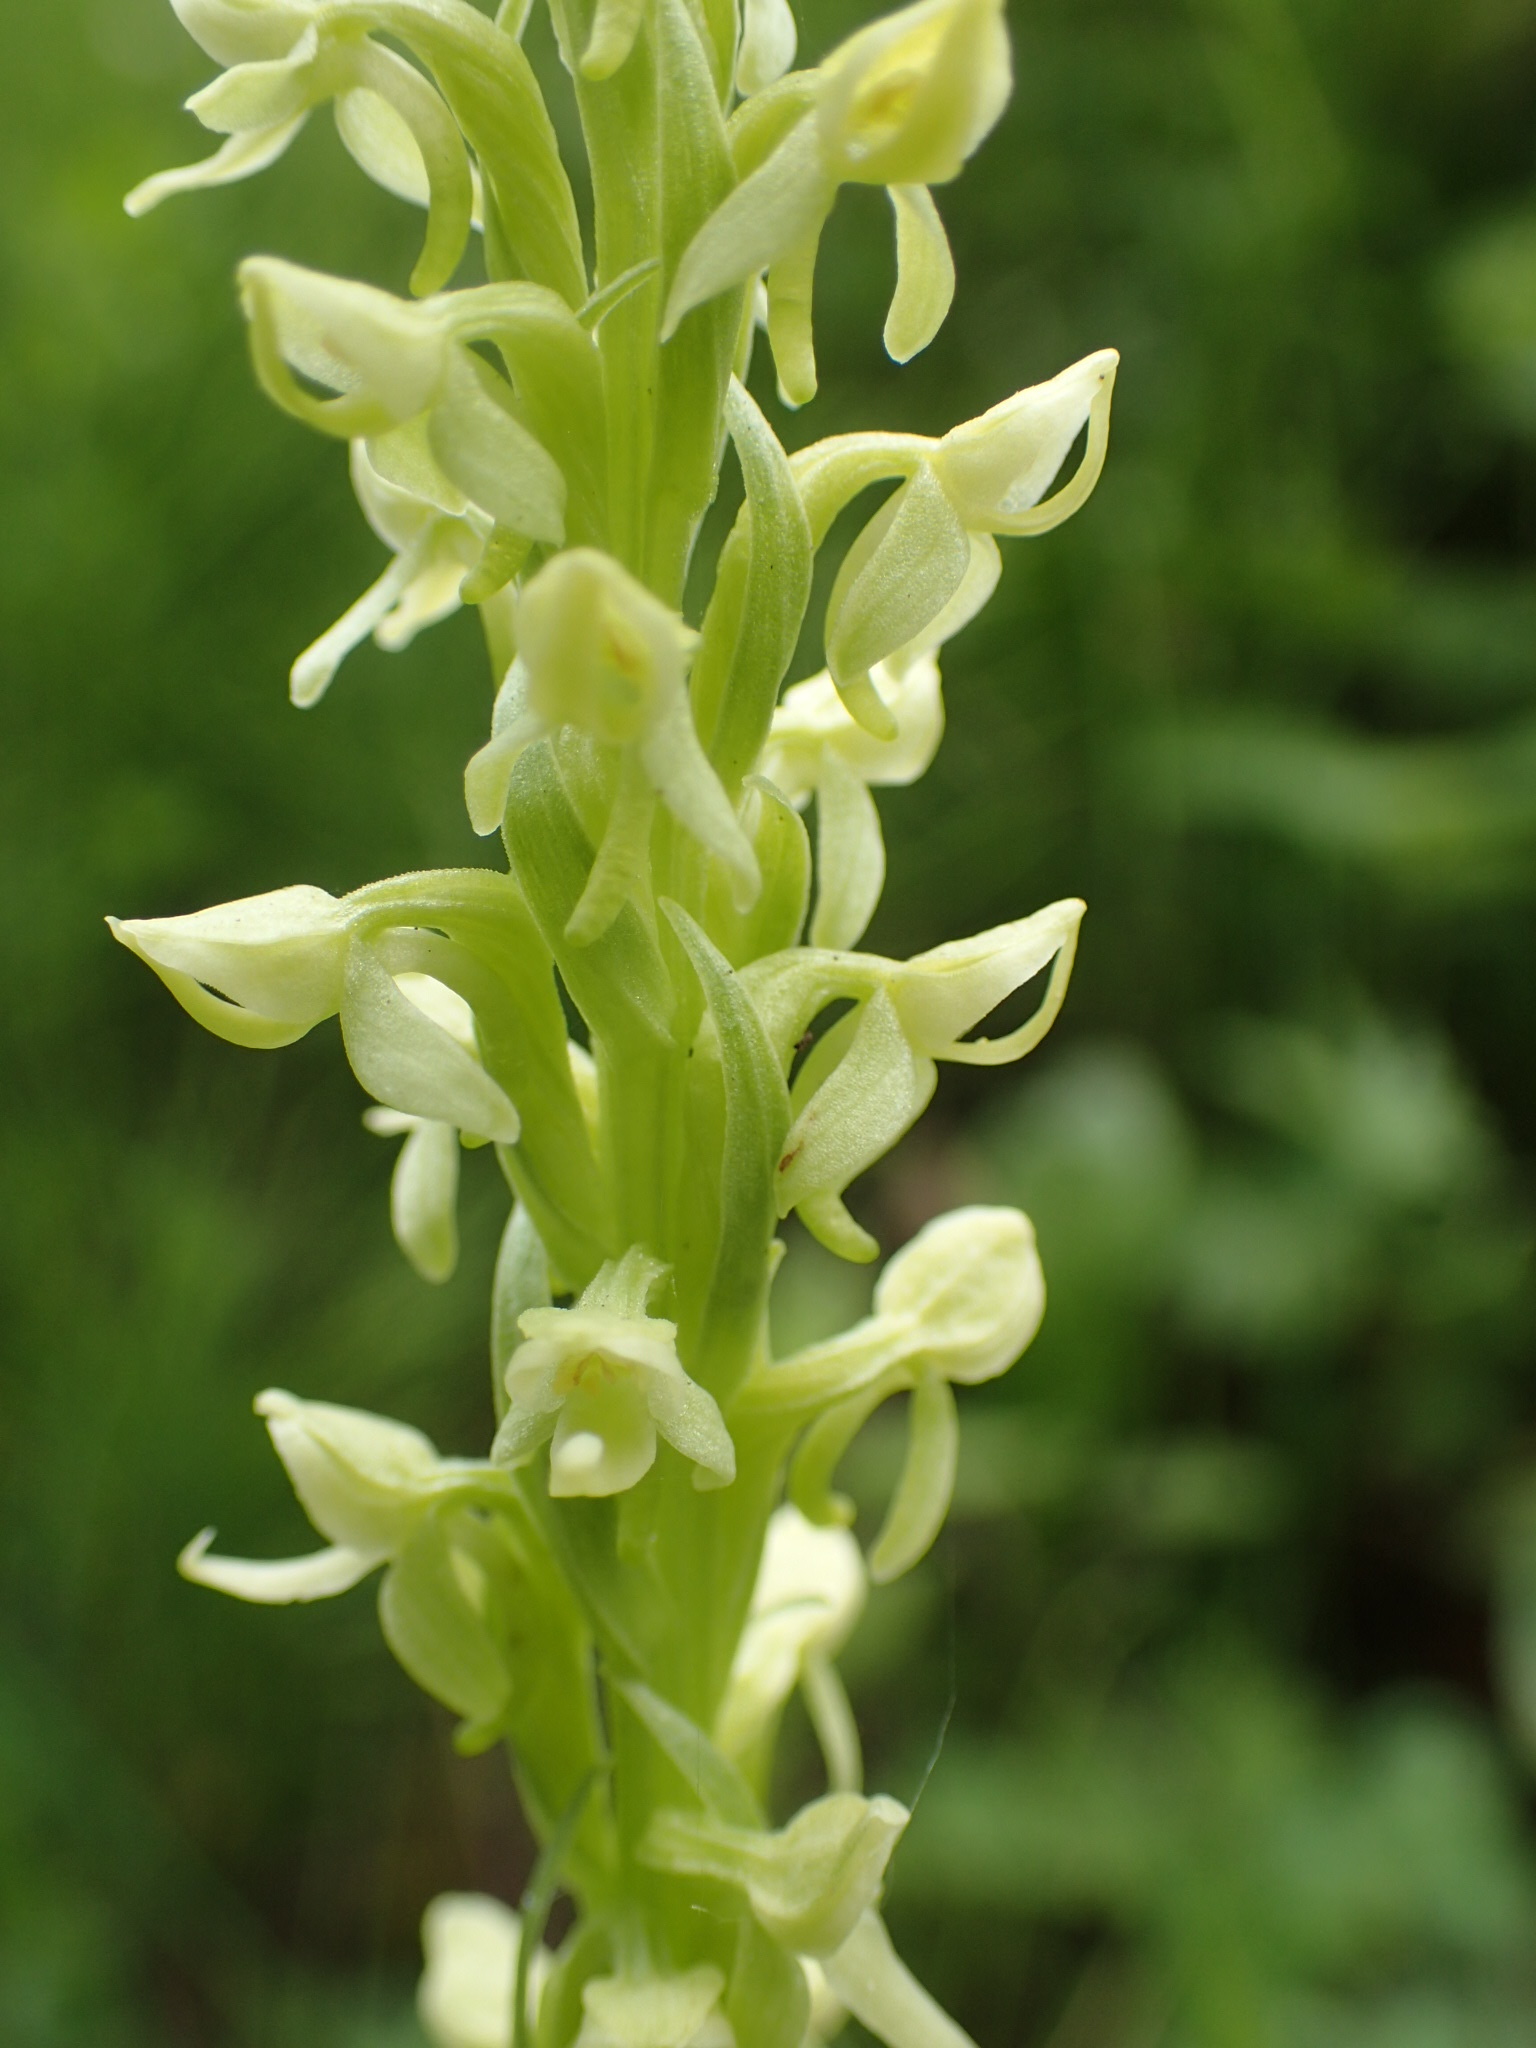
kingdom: Plantae
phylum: Tracheophyta
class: Liliopsida
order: Asparagales
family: Orchidaceae
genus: Platanthera
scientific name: Platanthera huronensis
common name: Fragrant green orchid
